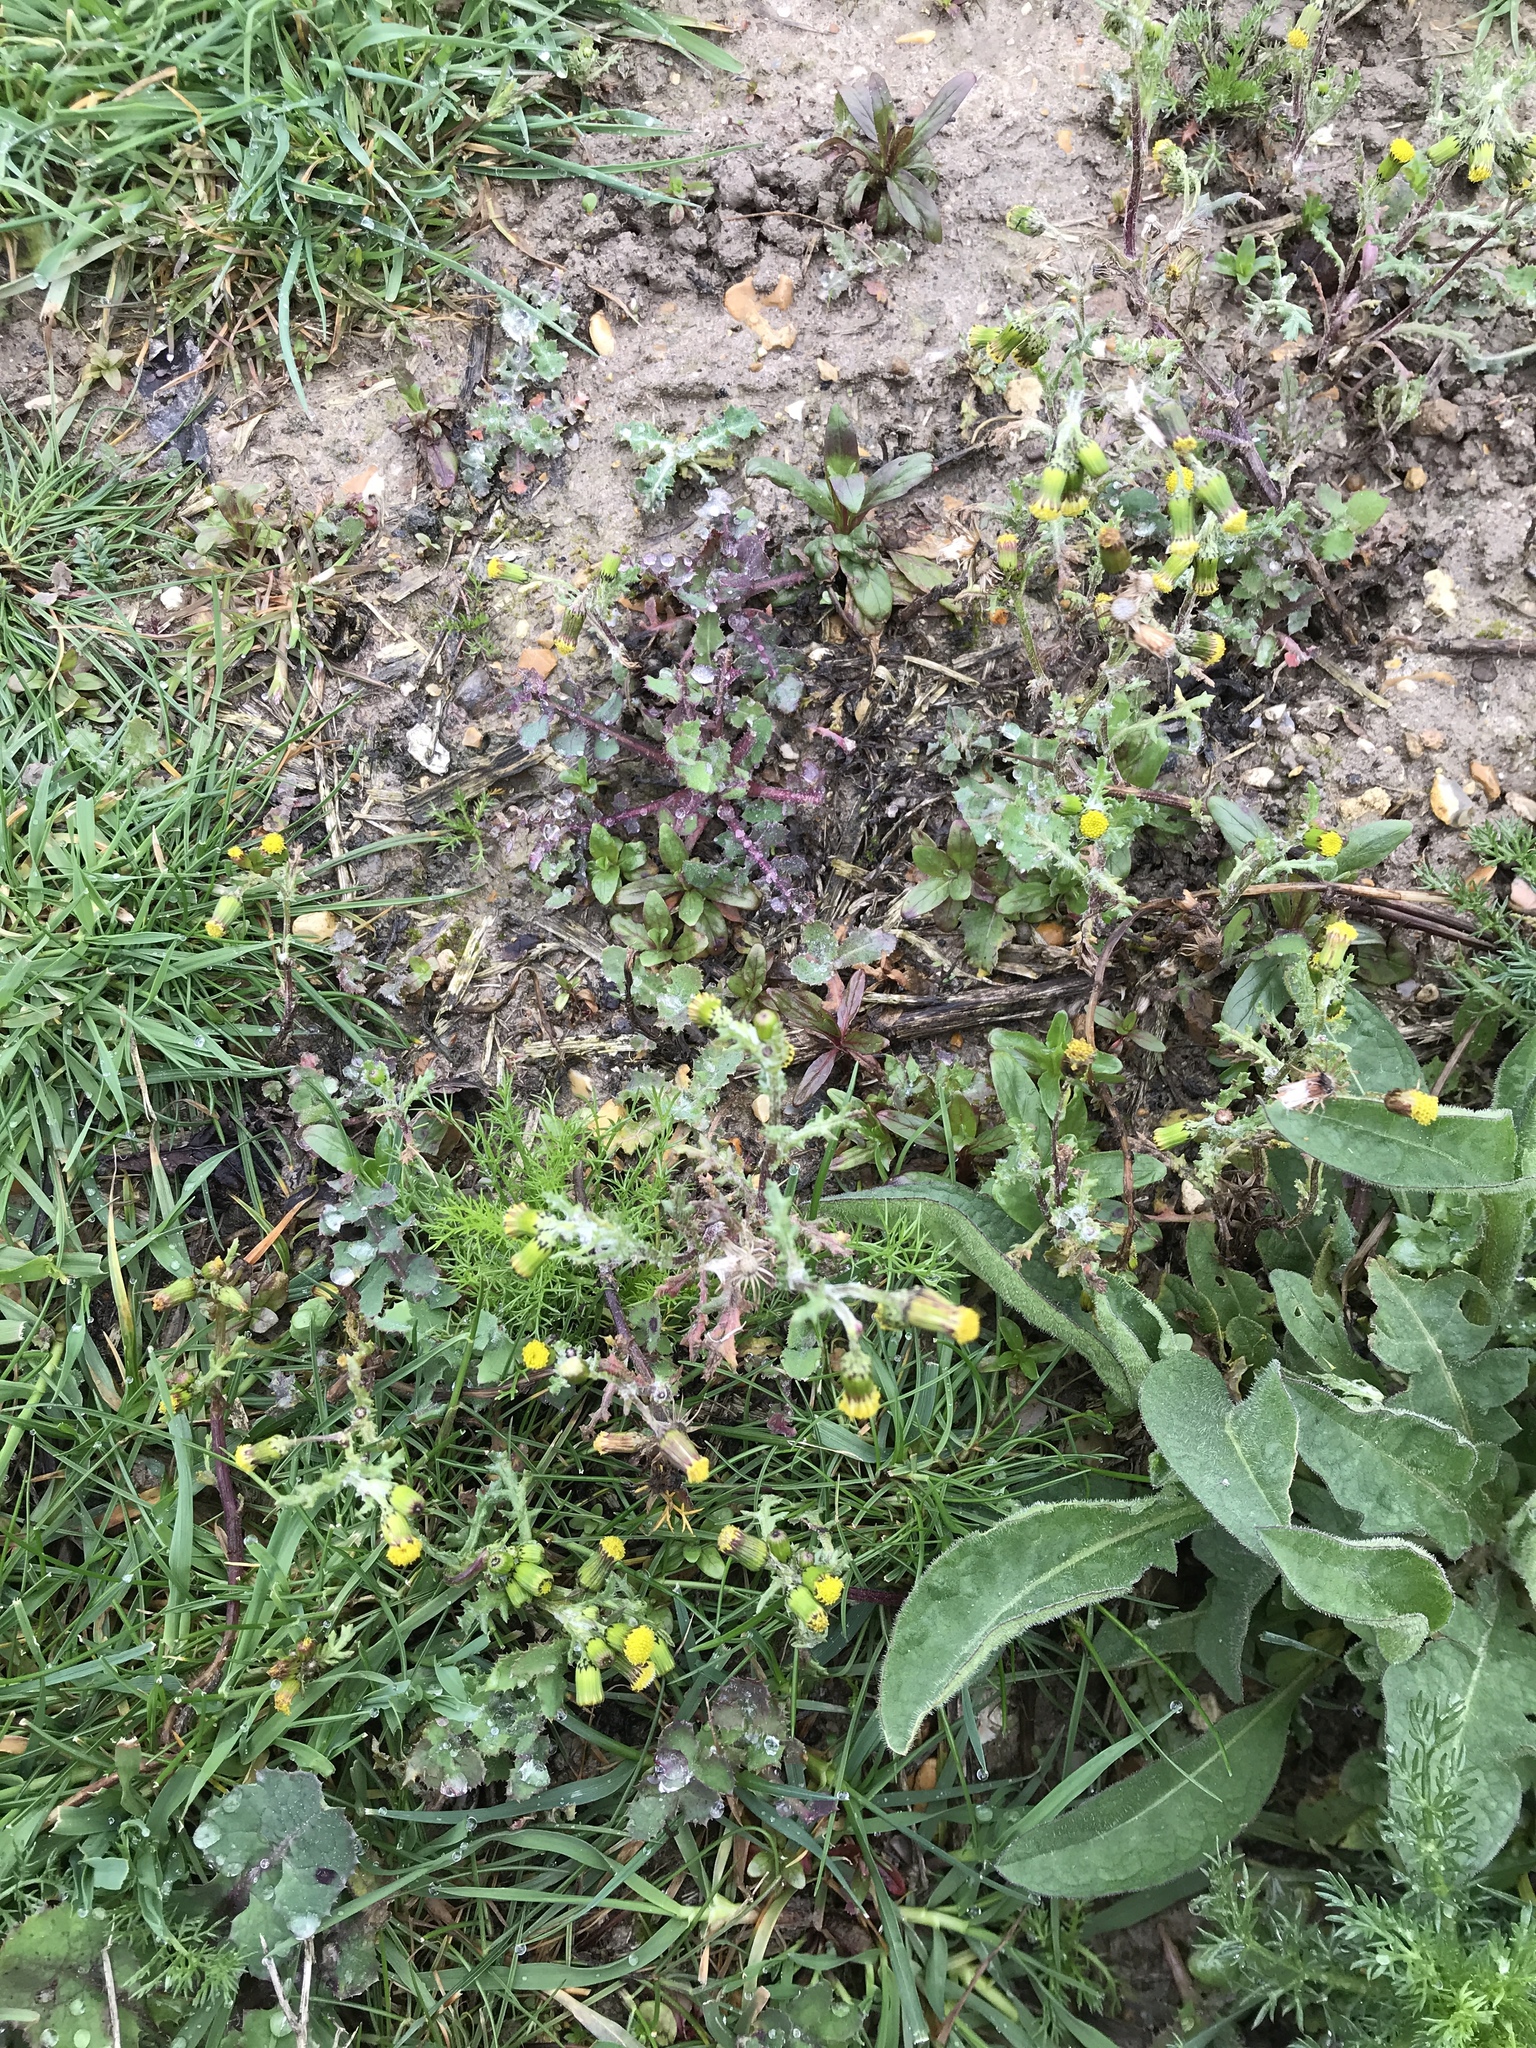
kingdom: Plantae
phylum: Tracheophyta
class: Magnoliopsida
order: Asterales
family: Asteraceae
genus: Senecio
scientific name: Senecio vulgaris
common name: Old-man-in-the-spring
